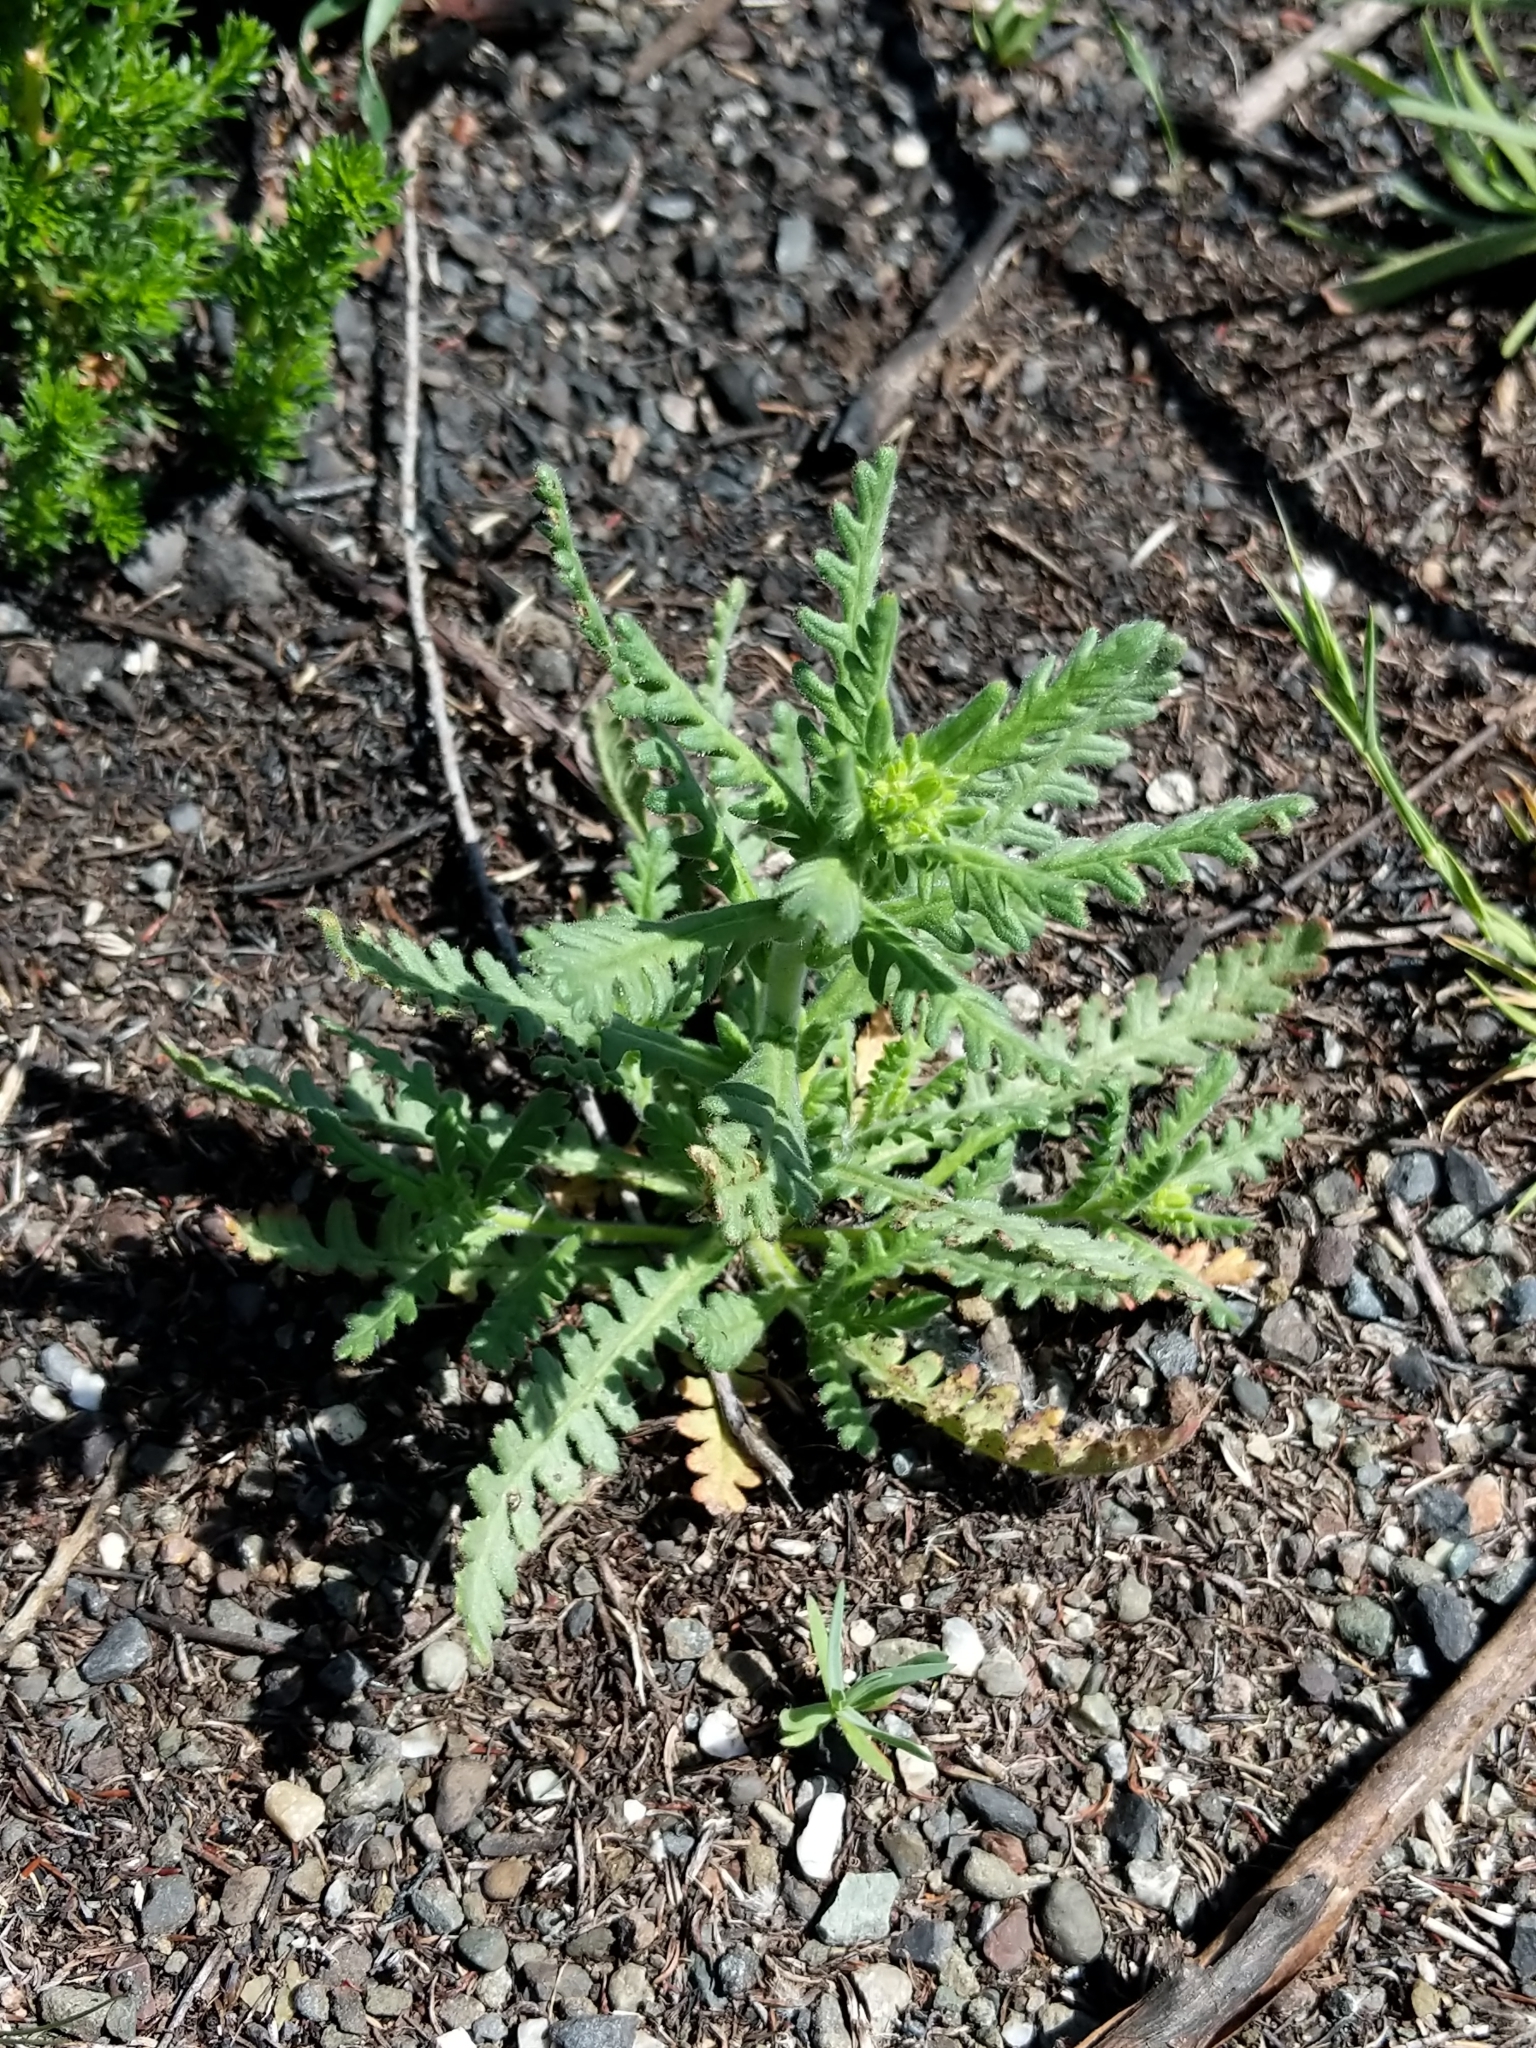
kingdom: Plantae
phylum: Tracheophyta
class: Magnoliopsida
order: Boraginales
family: Hydrophyllaceae
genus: Emmenanthe
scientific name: Emmenanthe penduliflora
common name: Whispering-bells
